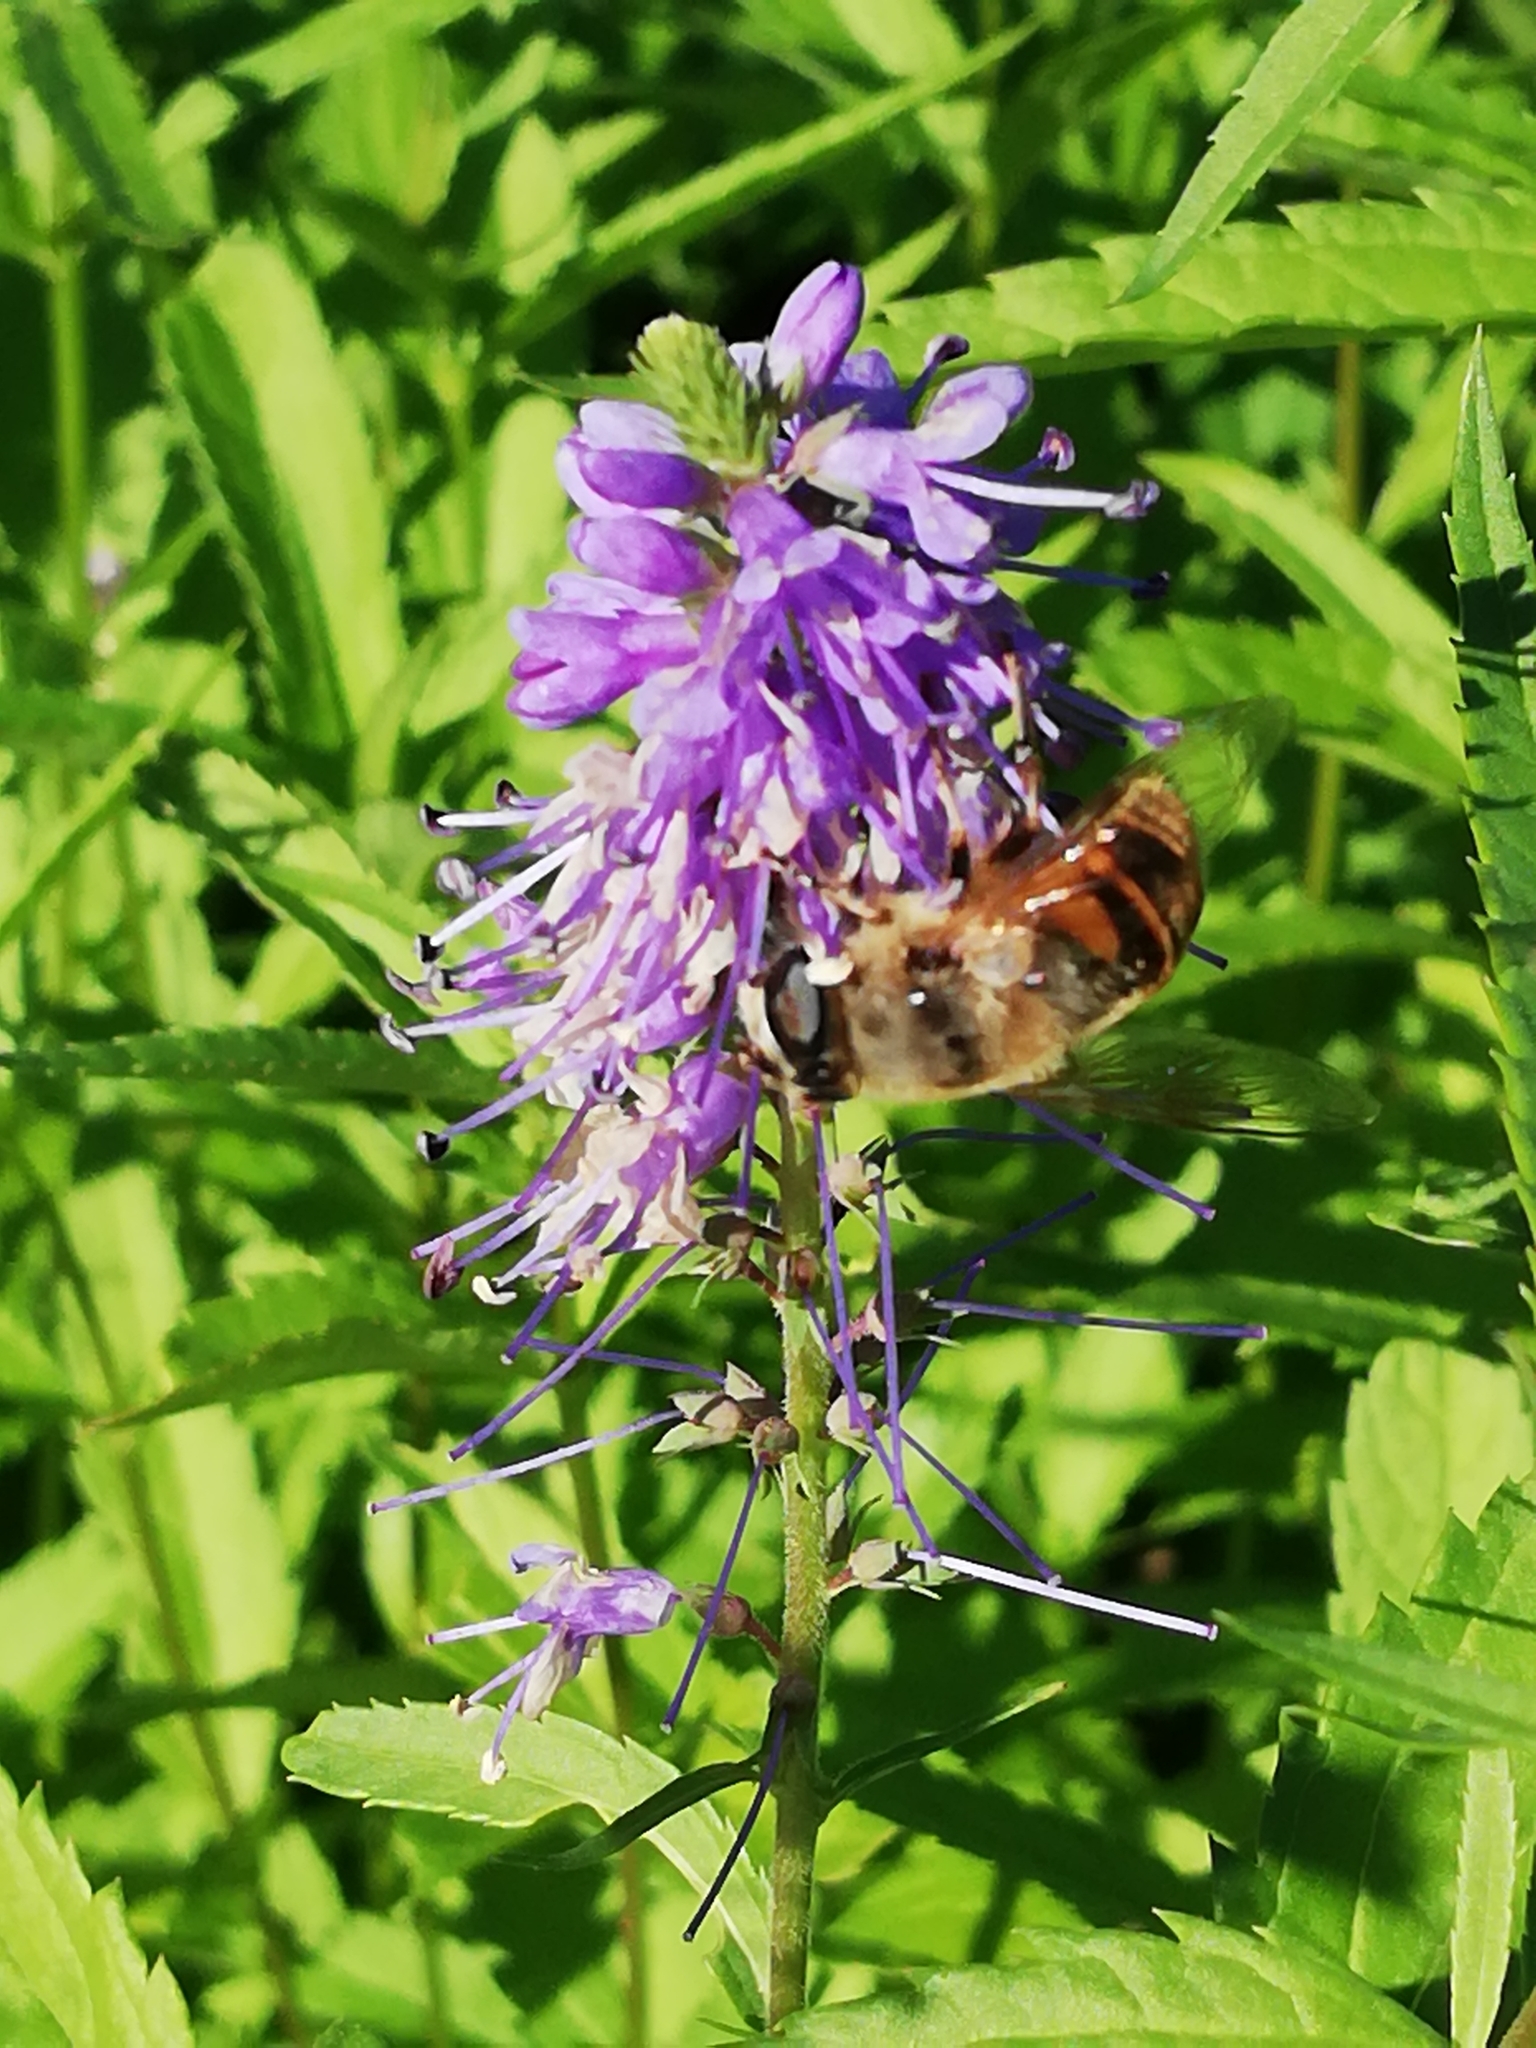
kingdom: Animalia
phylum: Arthropoda
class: Insecta
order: Diptera
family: Syrphidae
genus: Eristalis
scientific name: Eristalis tenax
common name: Drone fly
